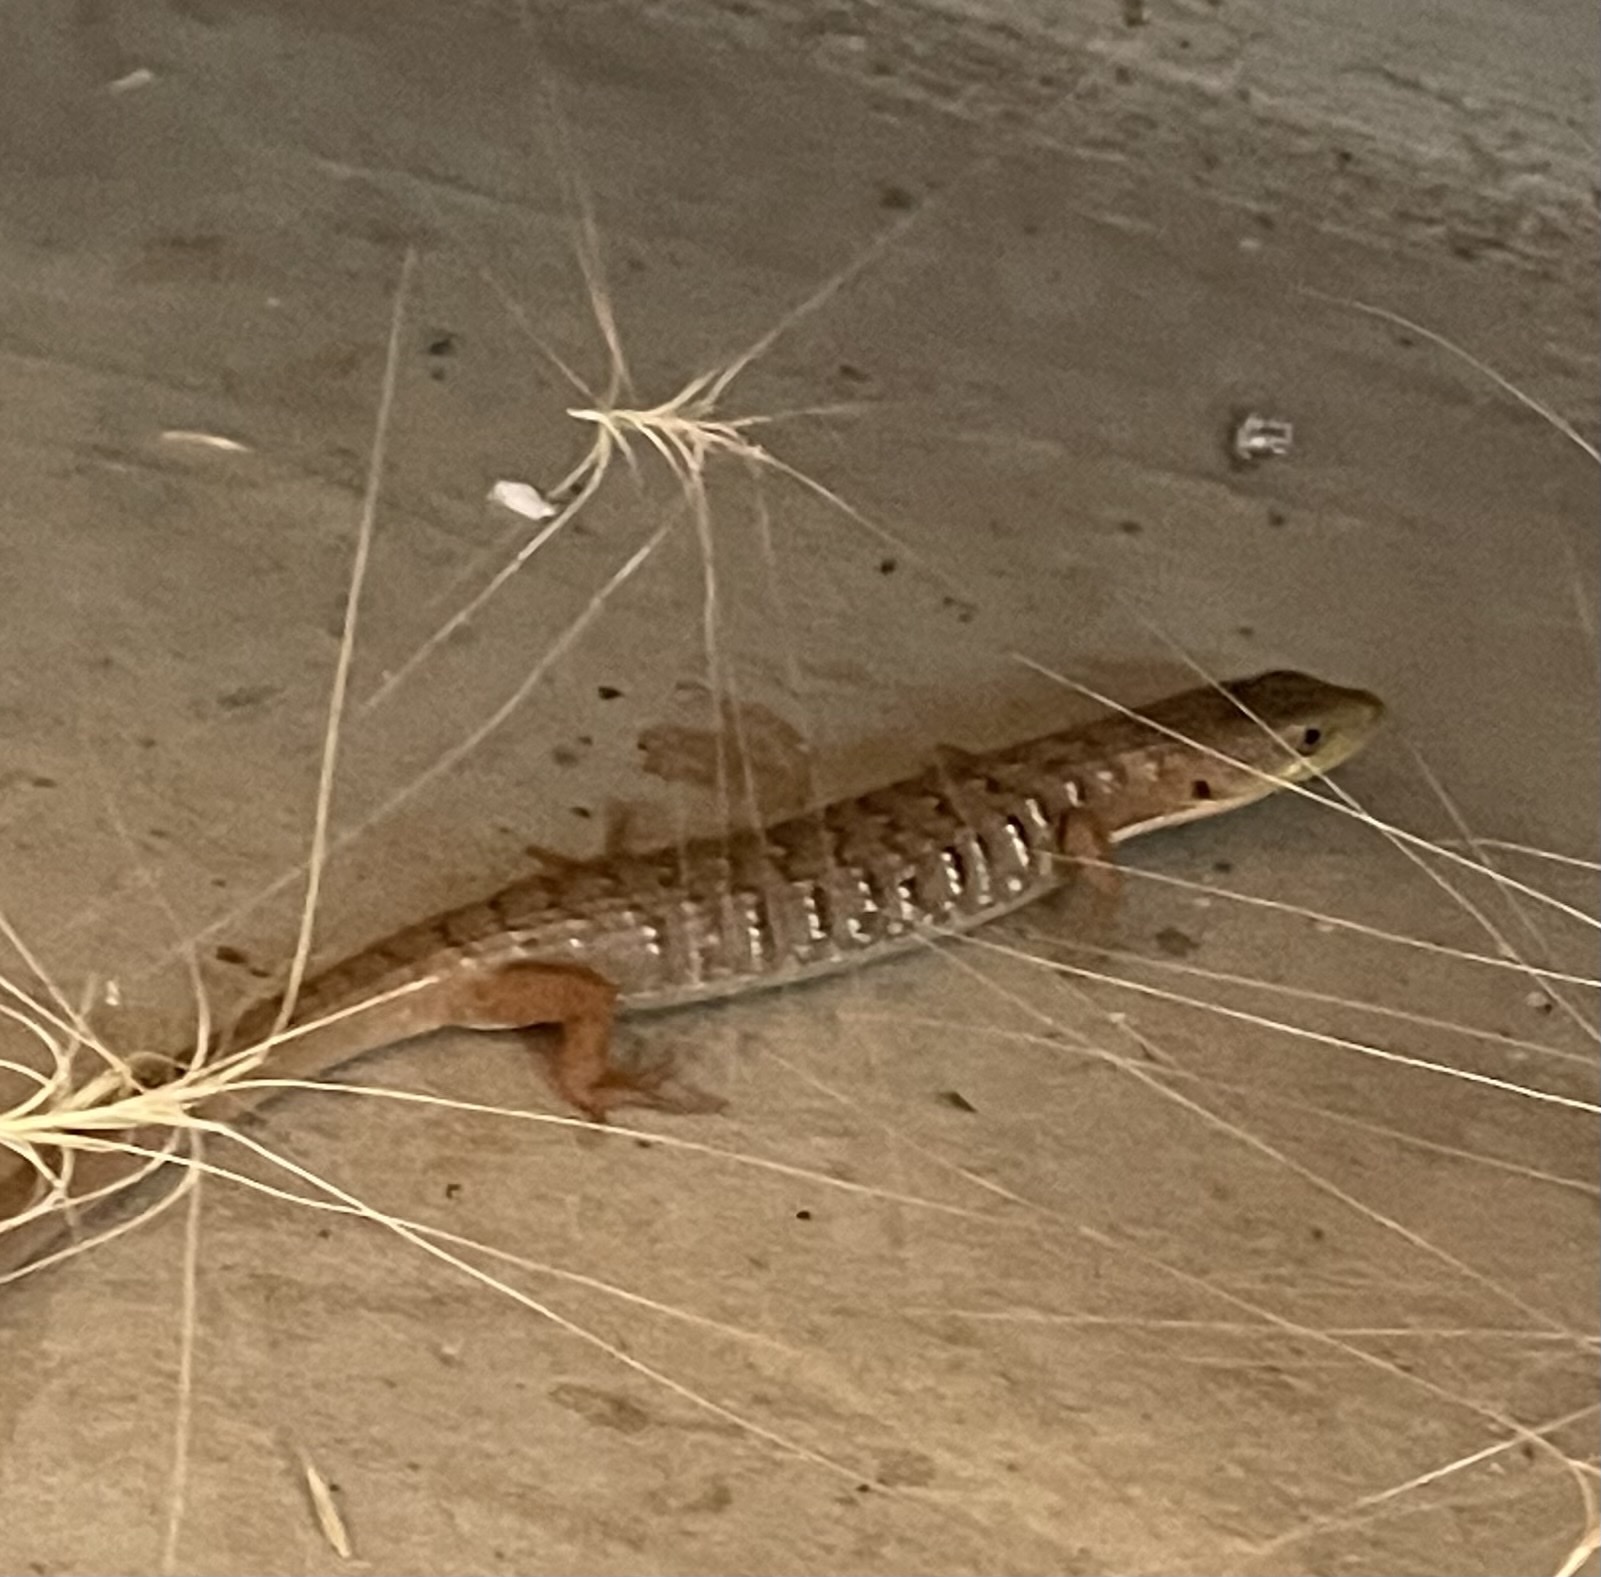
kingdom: Animalia
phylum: Chordata
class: Squamata
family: Anguidae
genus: Elgaria
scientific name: Elgaria multicarinata
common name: Southern alligator lizard
